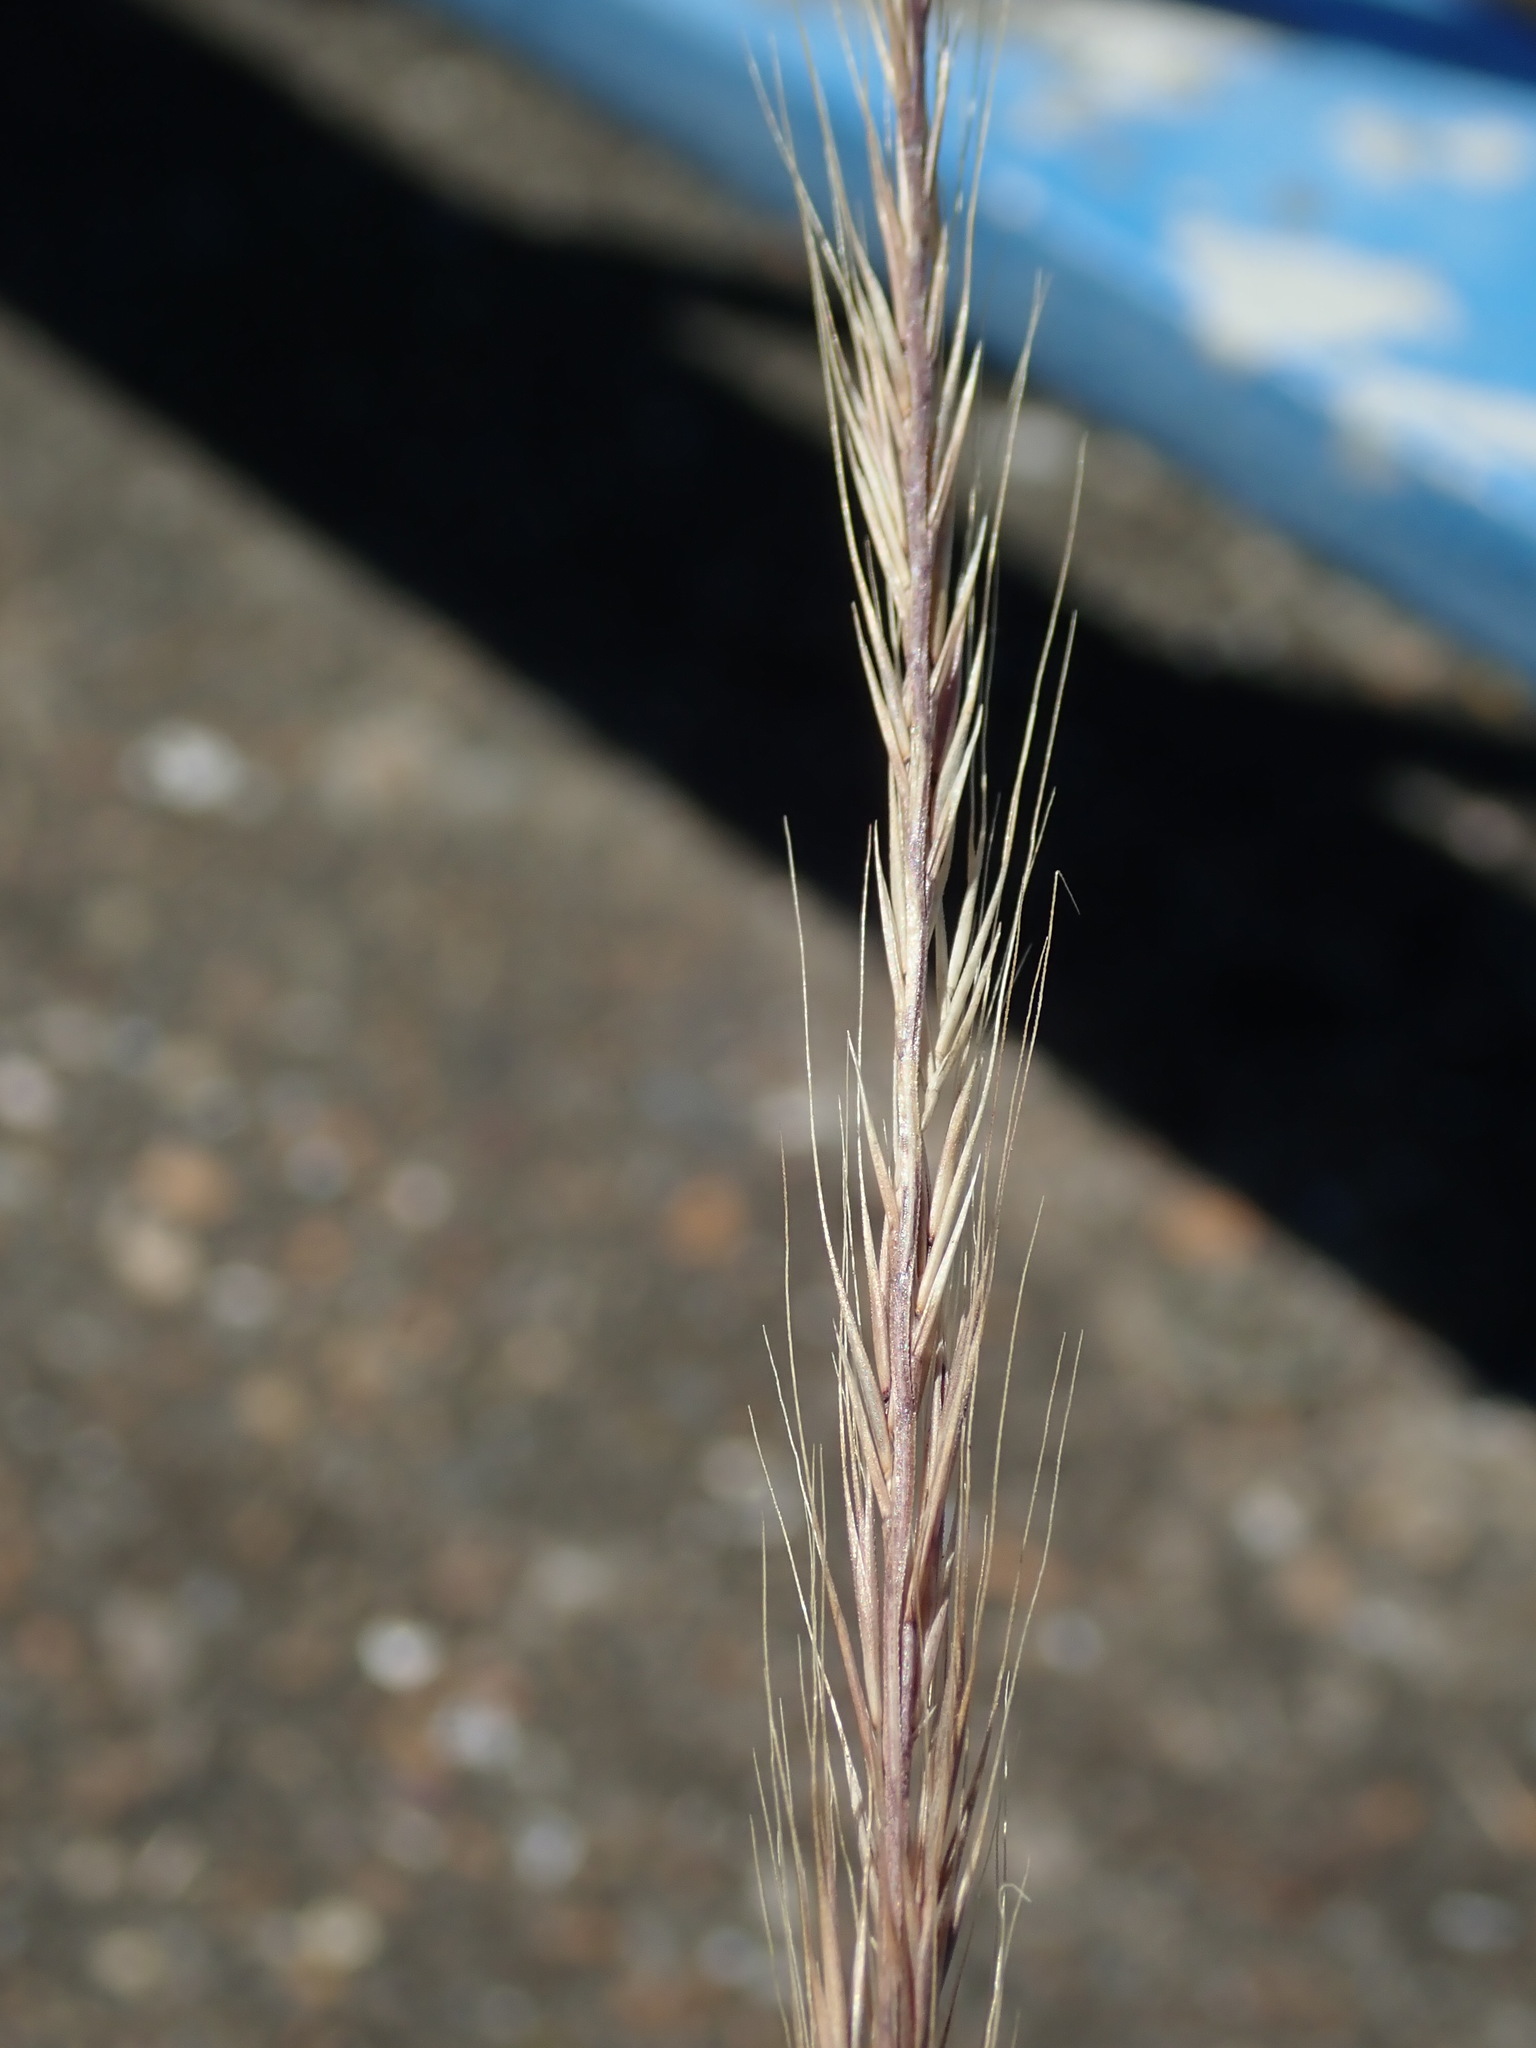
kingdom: Plantae
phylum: Tracheophyta
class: Liliopsida
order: Poales
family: Poaceae
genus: Festuca
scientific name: Festuca myuros
